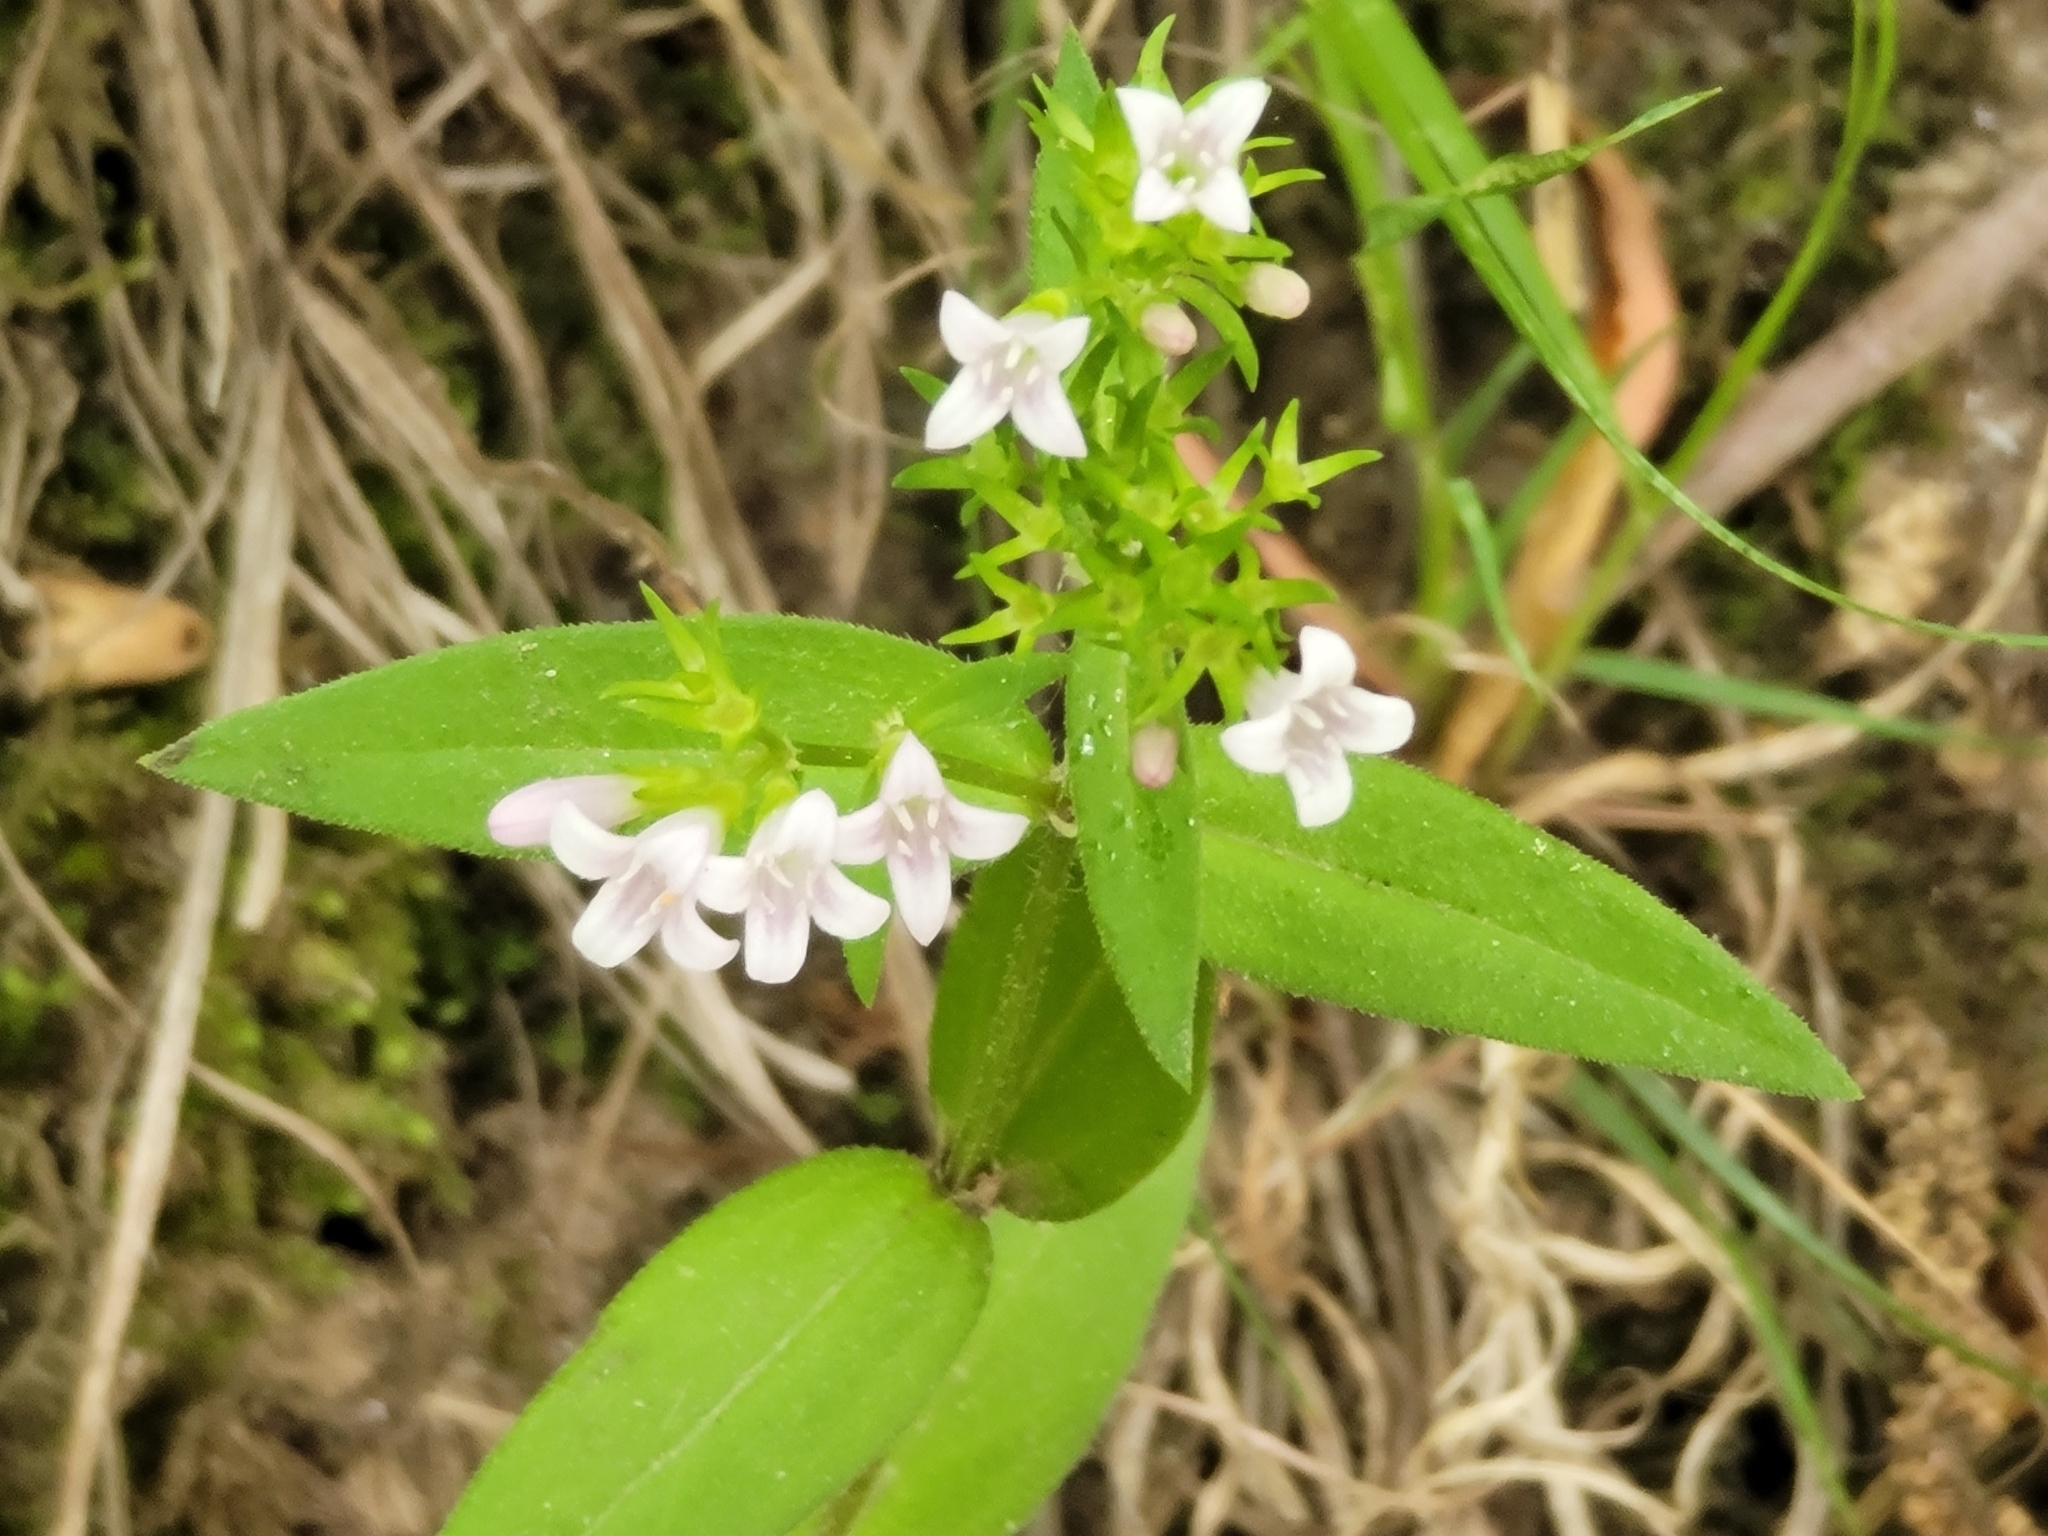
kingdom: Plantae
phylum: Tracheophyta
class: Magnoliopsida
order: Gentianales
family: Rubiaceae
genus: Houstonia
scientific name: Houstonia purpurea
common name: Summer bluet
